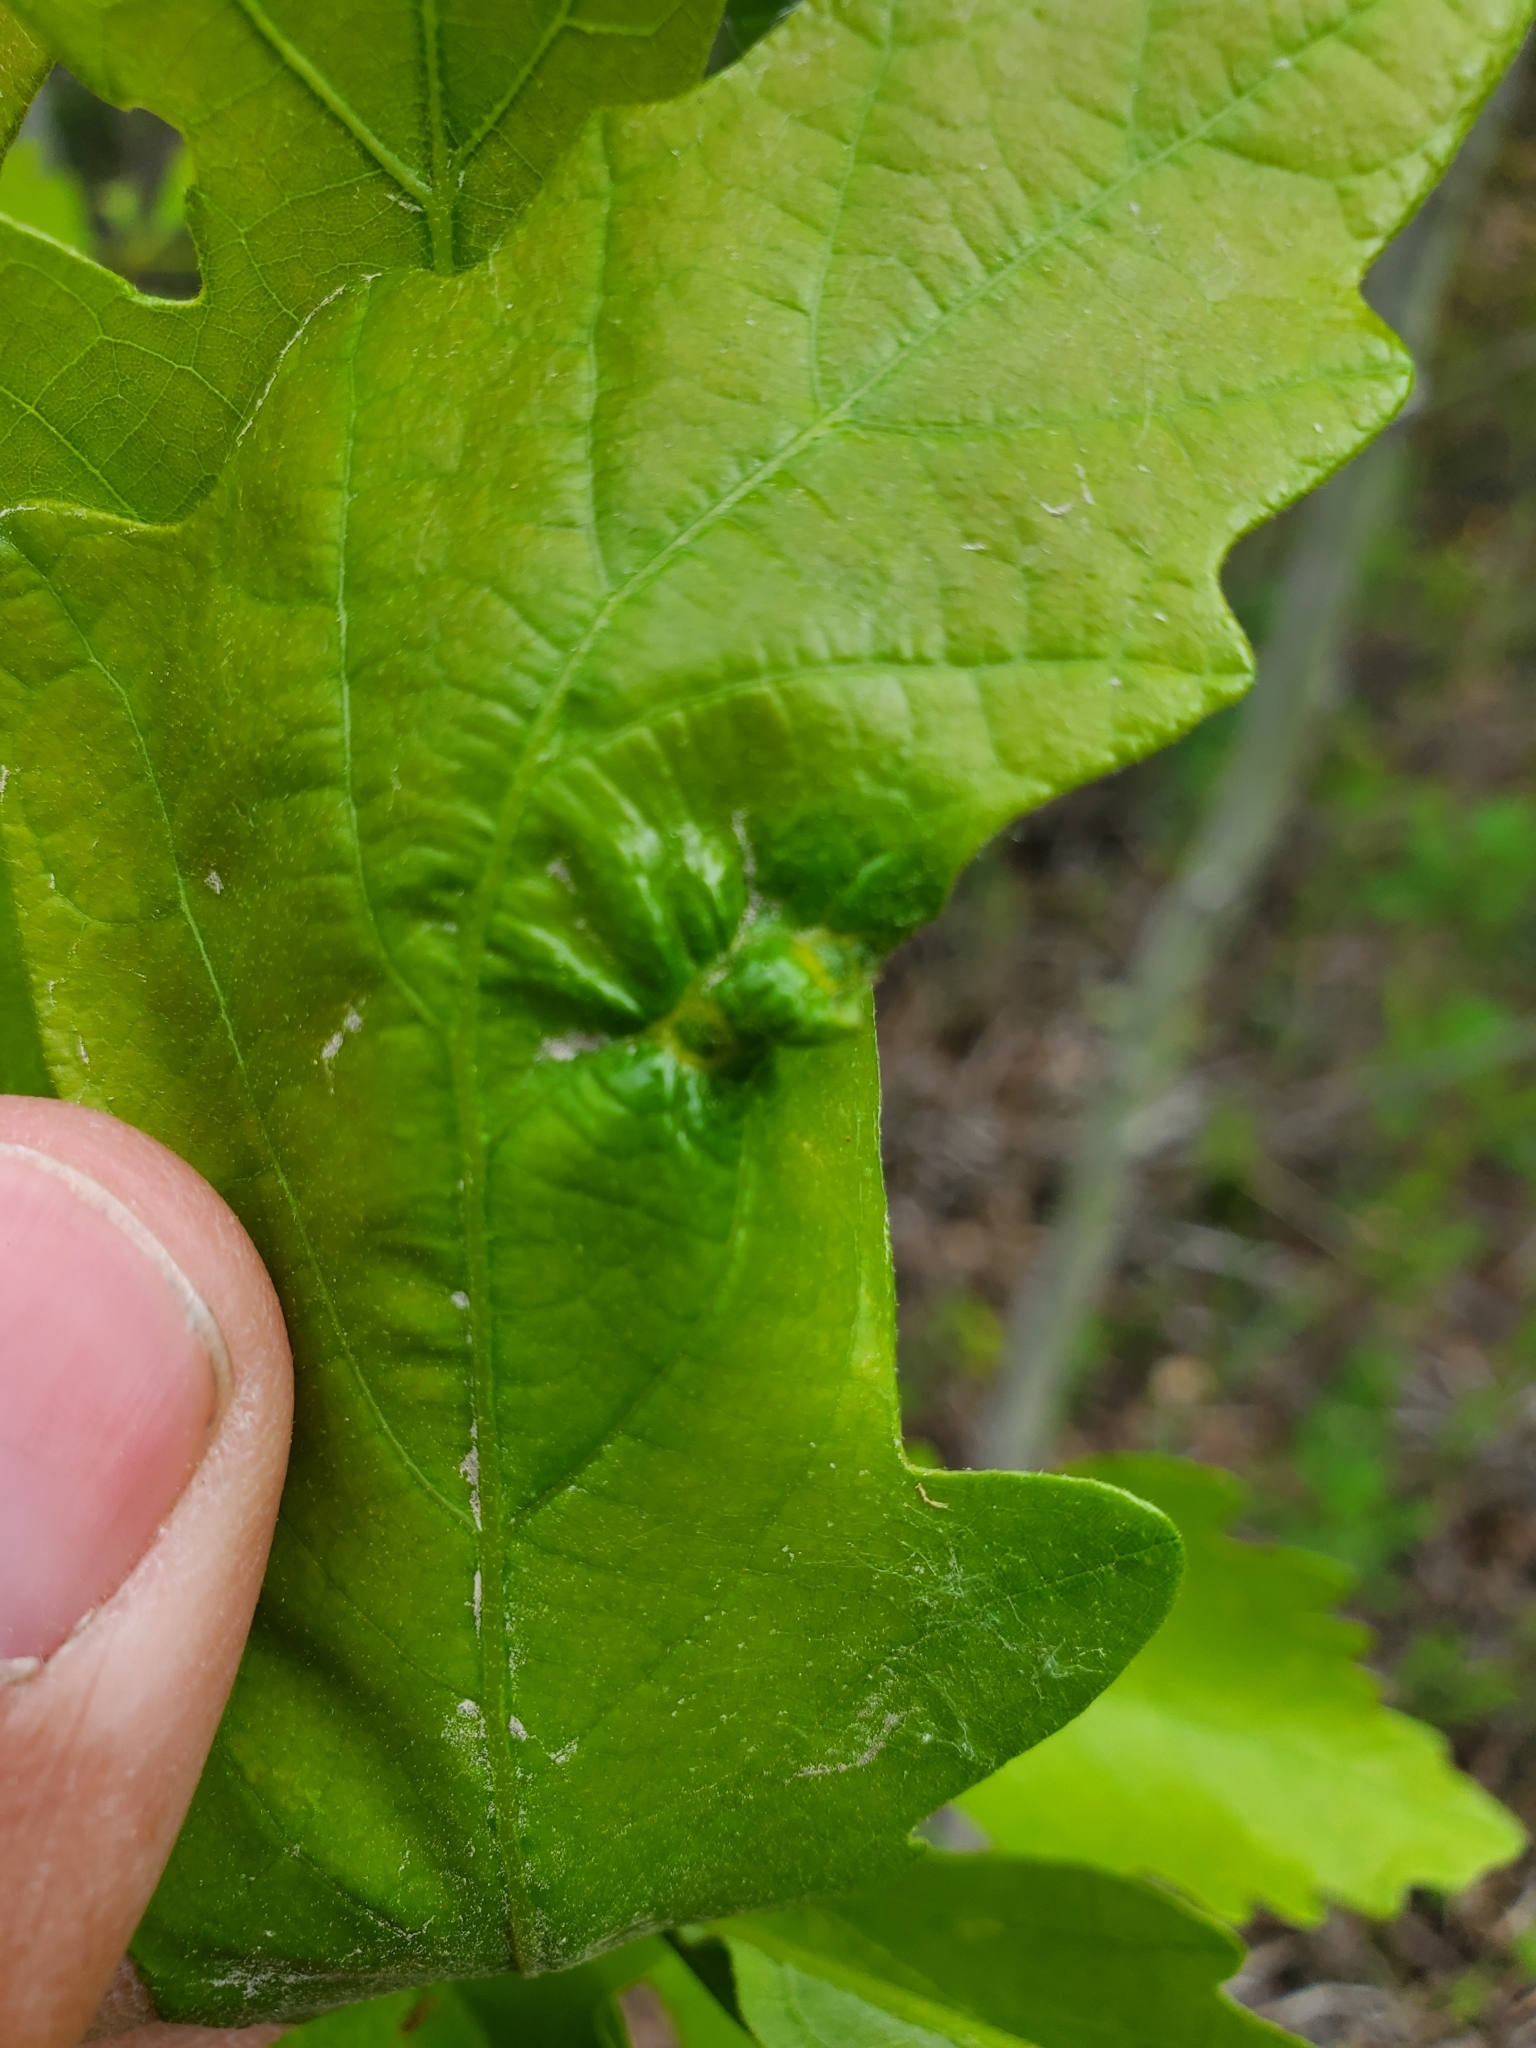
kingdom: Animalia
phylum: Arthropoda
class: Insecta
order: Hymenoptera
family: Cynipidae
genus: Neuroterus
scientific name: Neuroterus
